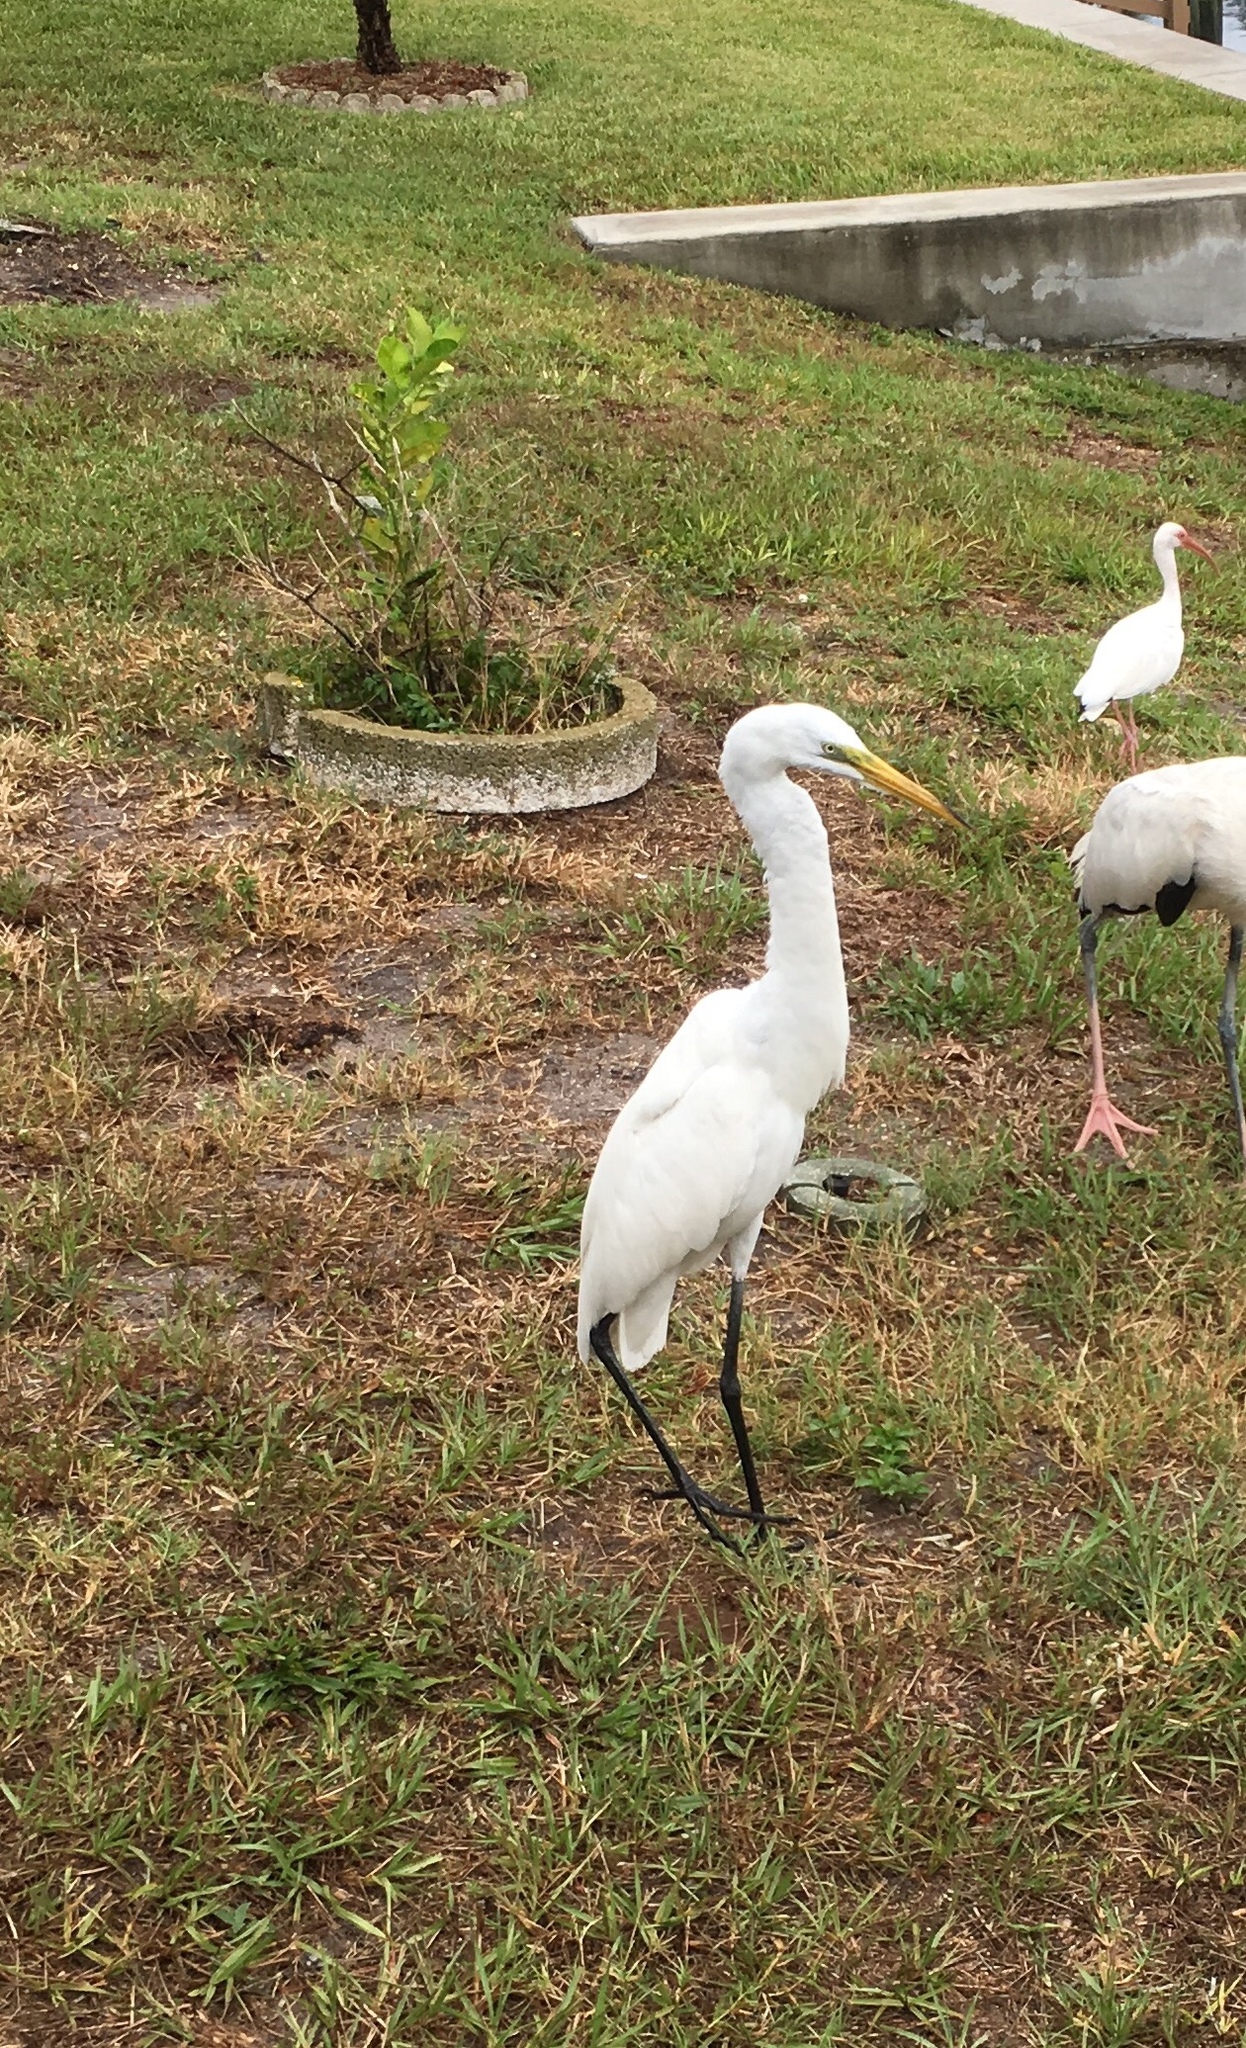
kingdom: Animalia
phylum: Chordata
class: Aves
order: Pelecaniformes
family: Ardeidae
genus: Ardea
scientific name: Ardea alba
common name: Great egret
